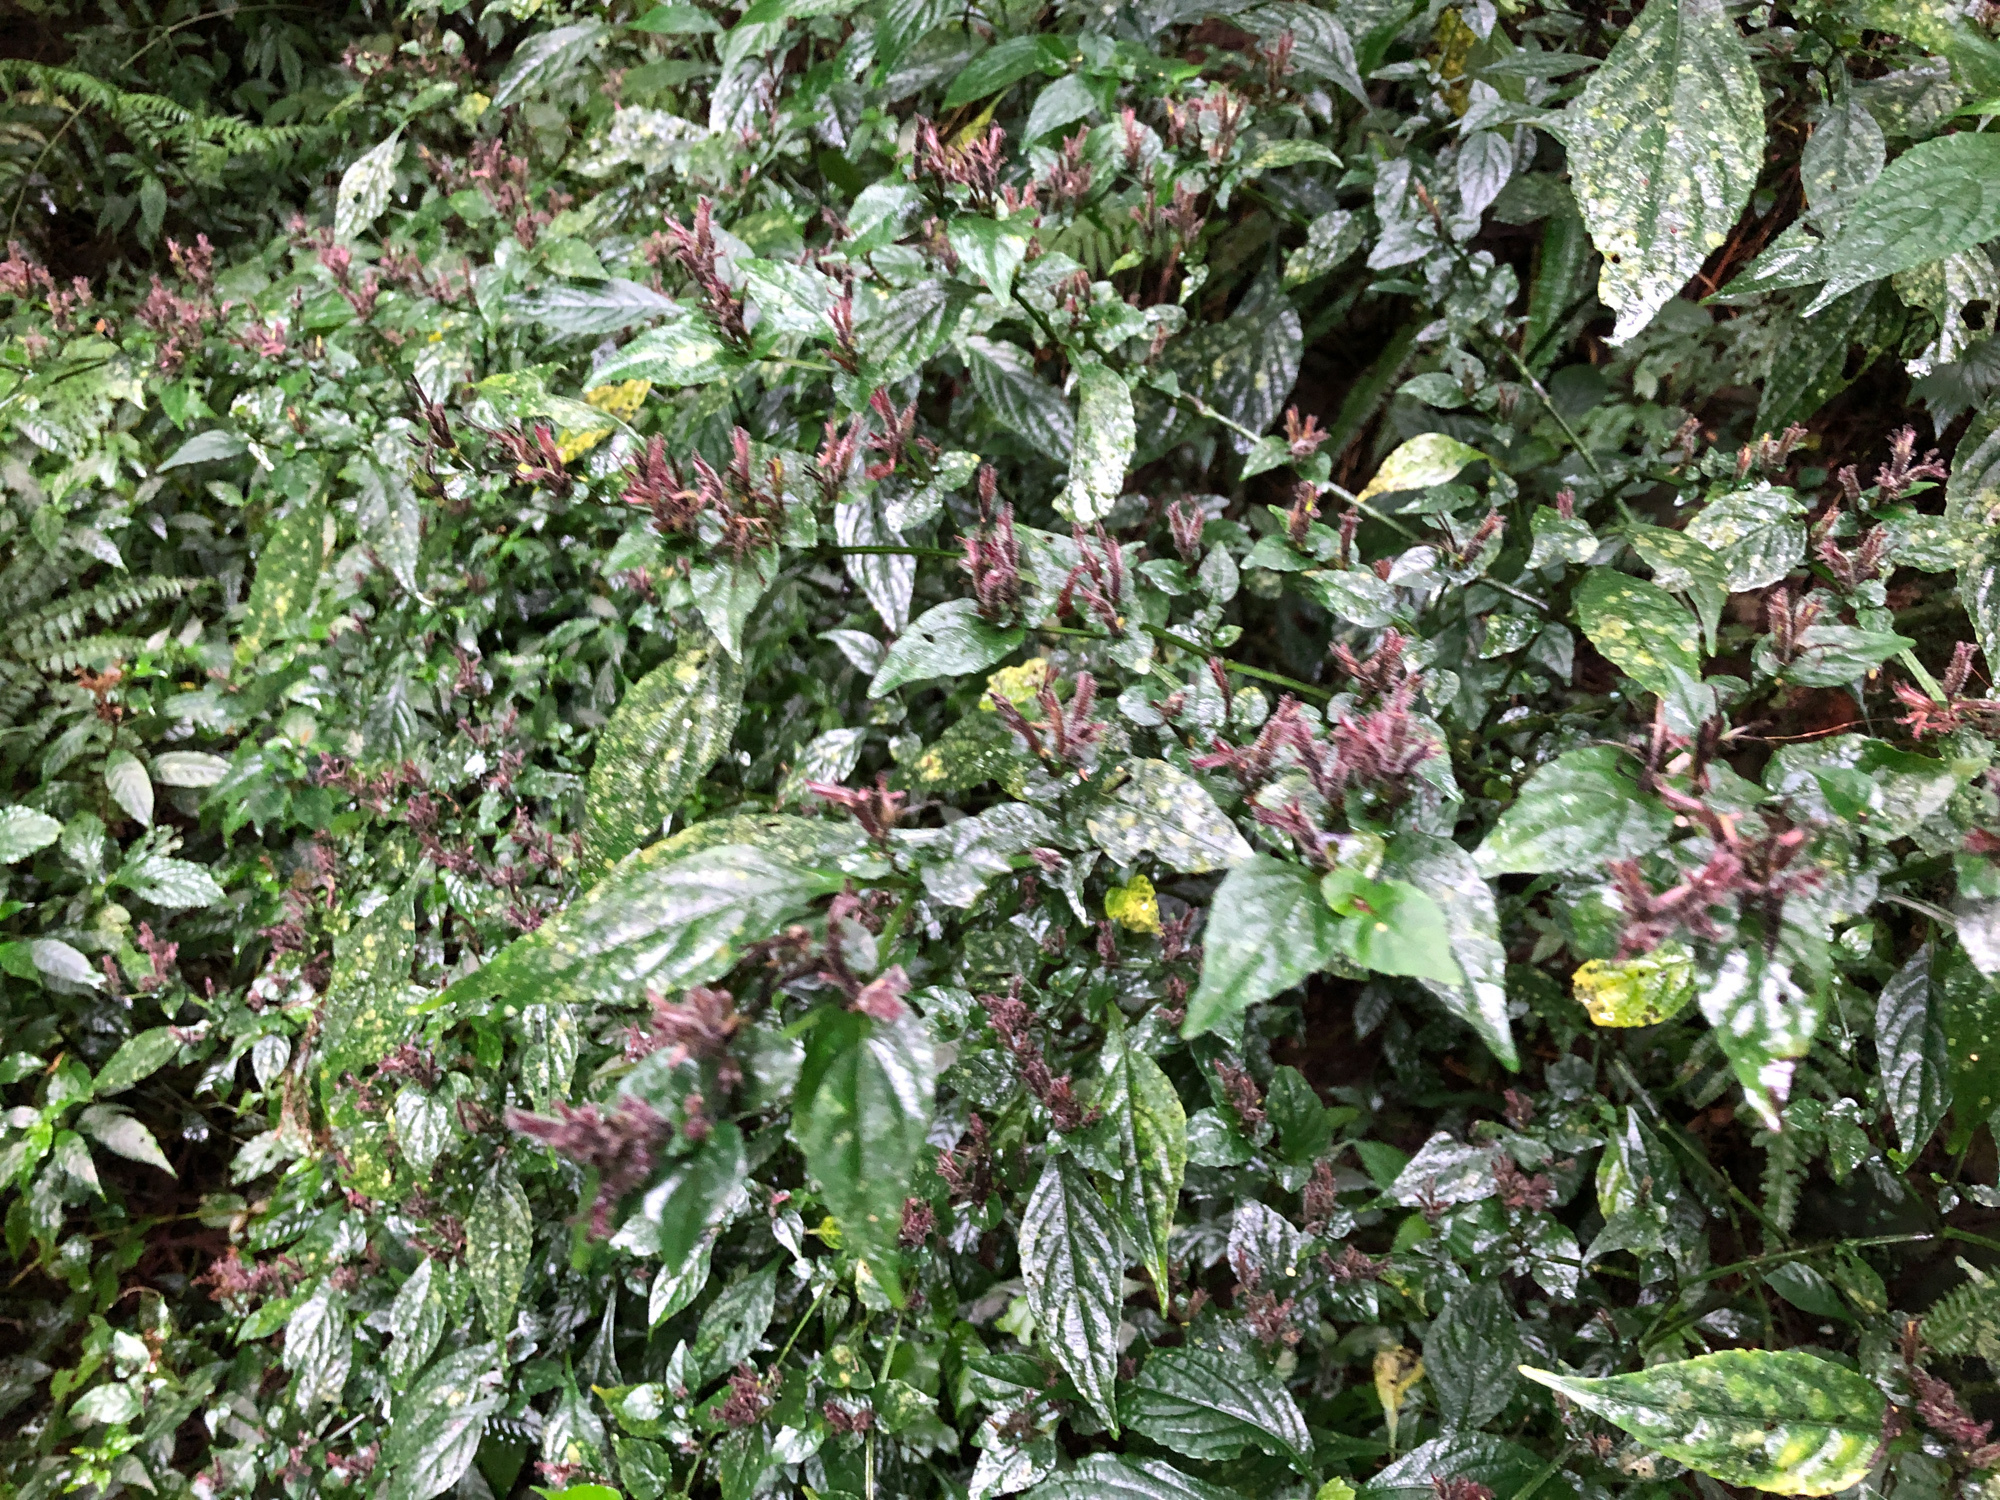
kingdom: Plantae
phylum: Tracheophyta
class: Magnoliopsida
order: Gentianales
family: Rubiaceae
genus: Ophiorrhiza
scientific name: Ophiorrhiza japonica
